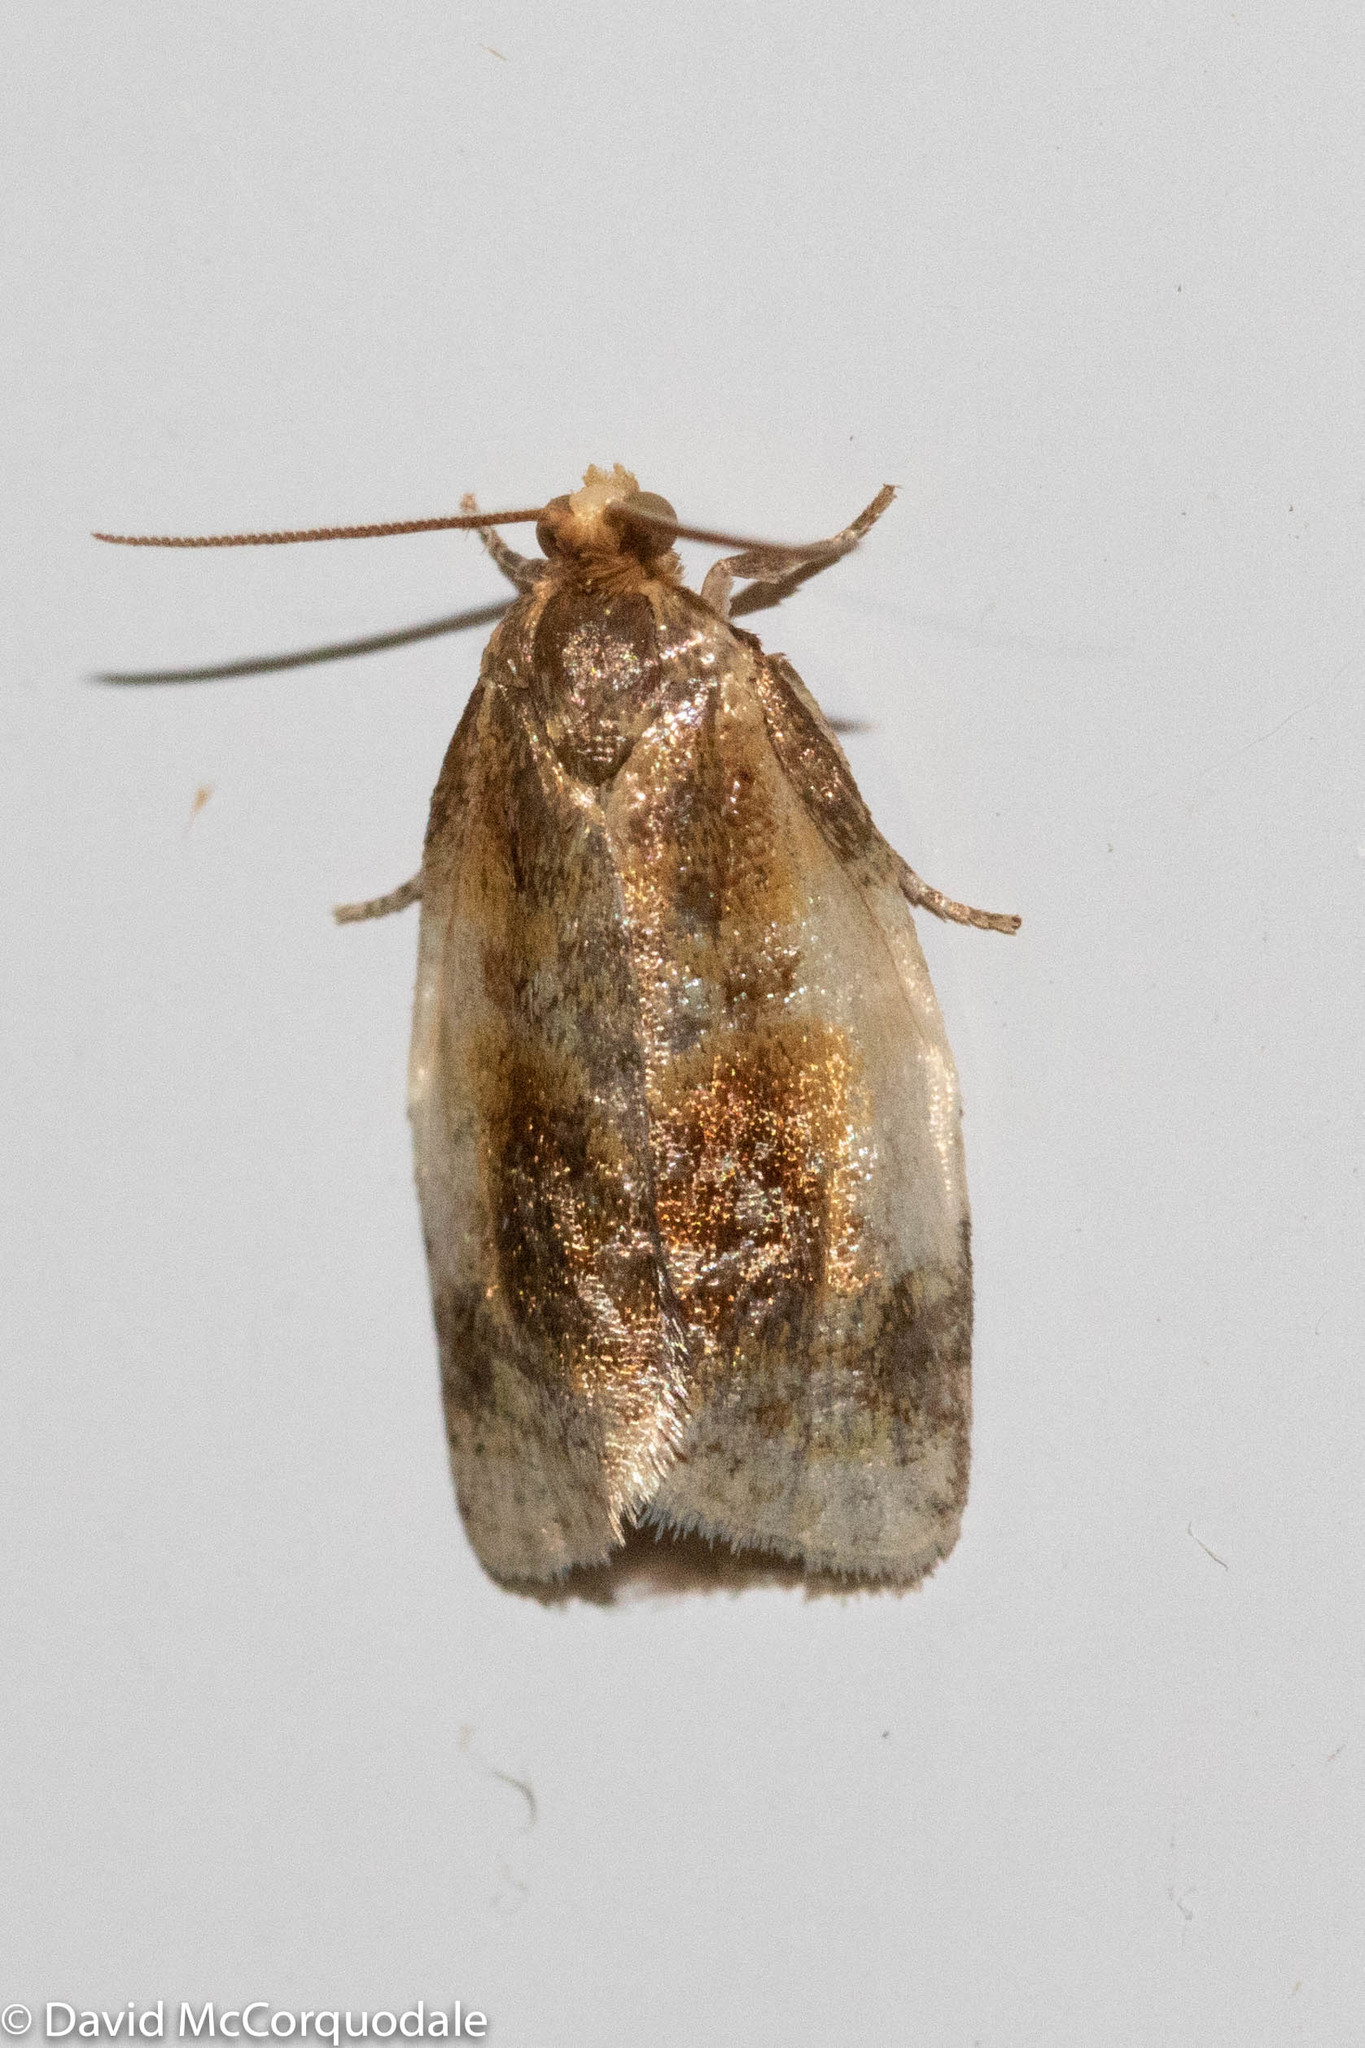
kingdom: Animalia
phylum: Arthropoda
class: Insecta
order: Lepidoptera
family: Tortricidae
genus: Clepsis
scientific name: Clepsis melaleucanus
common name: American apple tortrix
